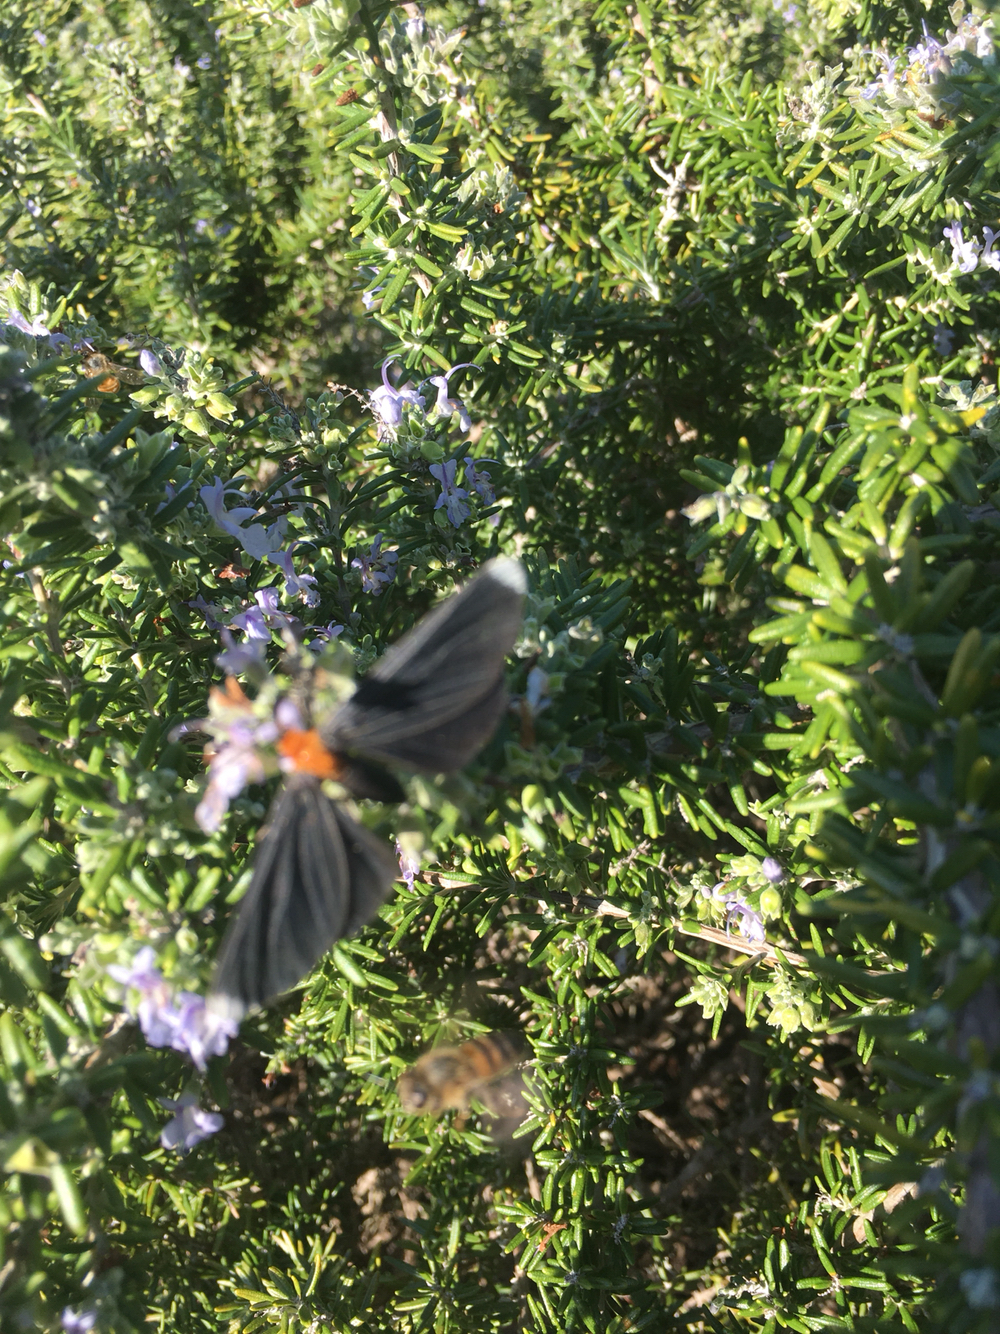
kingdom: Animalia
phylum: Arthropoda
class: Insecta
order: Lepidoptera
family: Geometridae
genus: Melanchroia
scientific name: Melanchroia chephise
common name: White-tipped black
